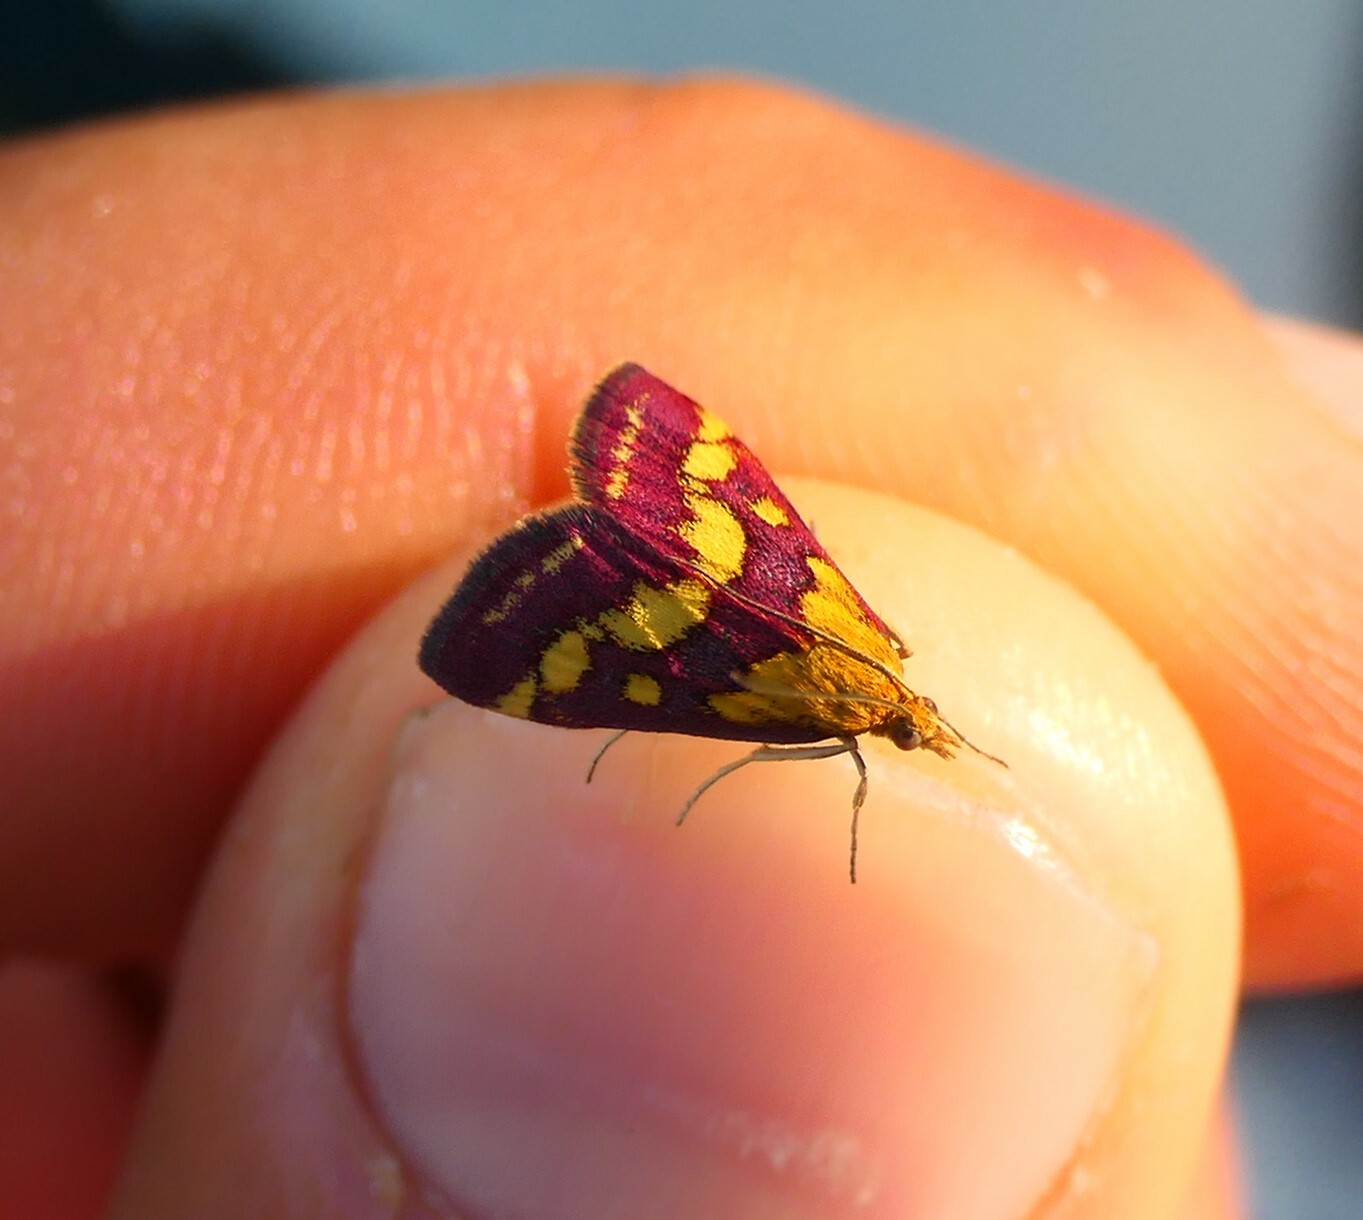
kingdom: Animalia
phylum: Arthropoda
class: Insecta
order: Lepidoptera
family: Crambidae
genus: Pyrausta
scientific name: Pyrausta purpuralis
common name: Common purple & gold
